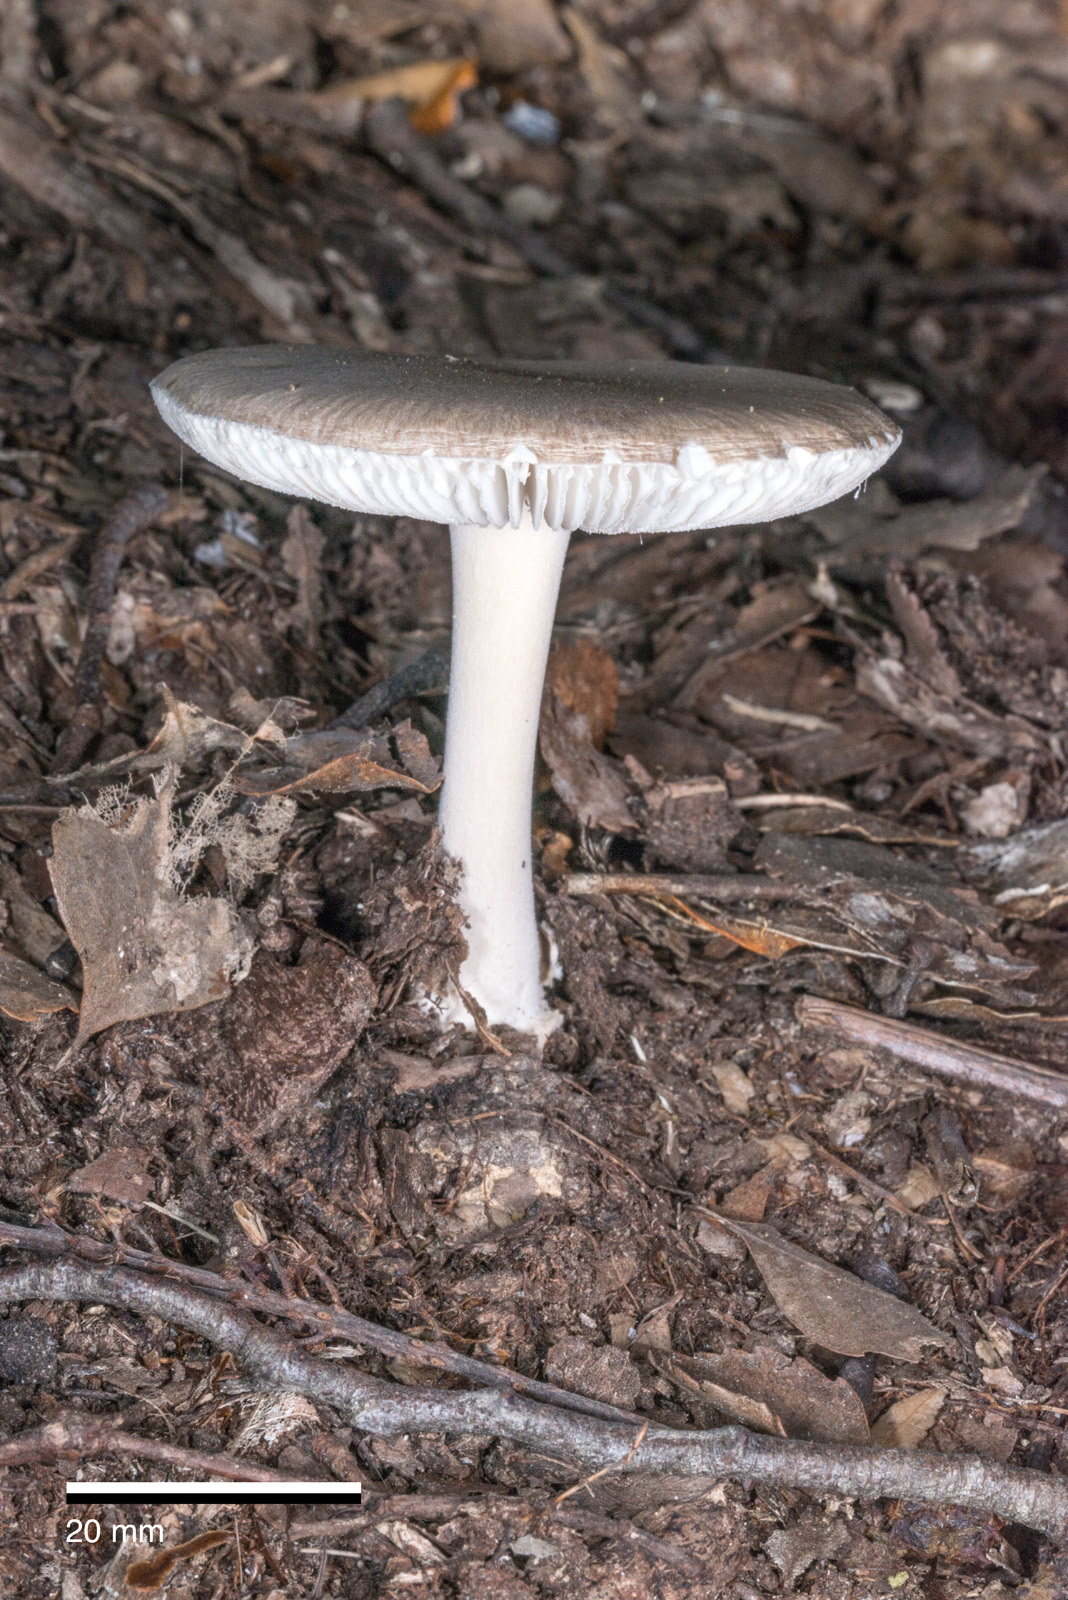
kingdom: Fungi
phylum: Basidiomycota
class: Agaricomycetes
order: Agaricales
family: Amanitaceae
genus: Amanita
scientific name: Amanita nehuta
